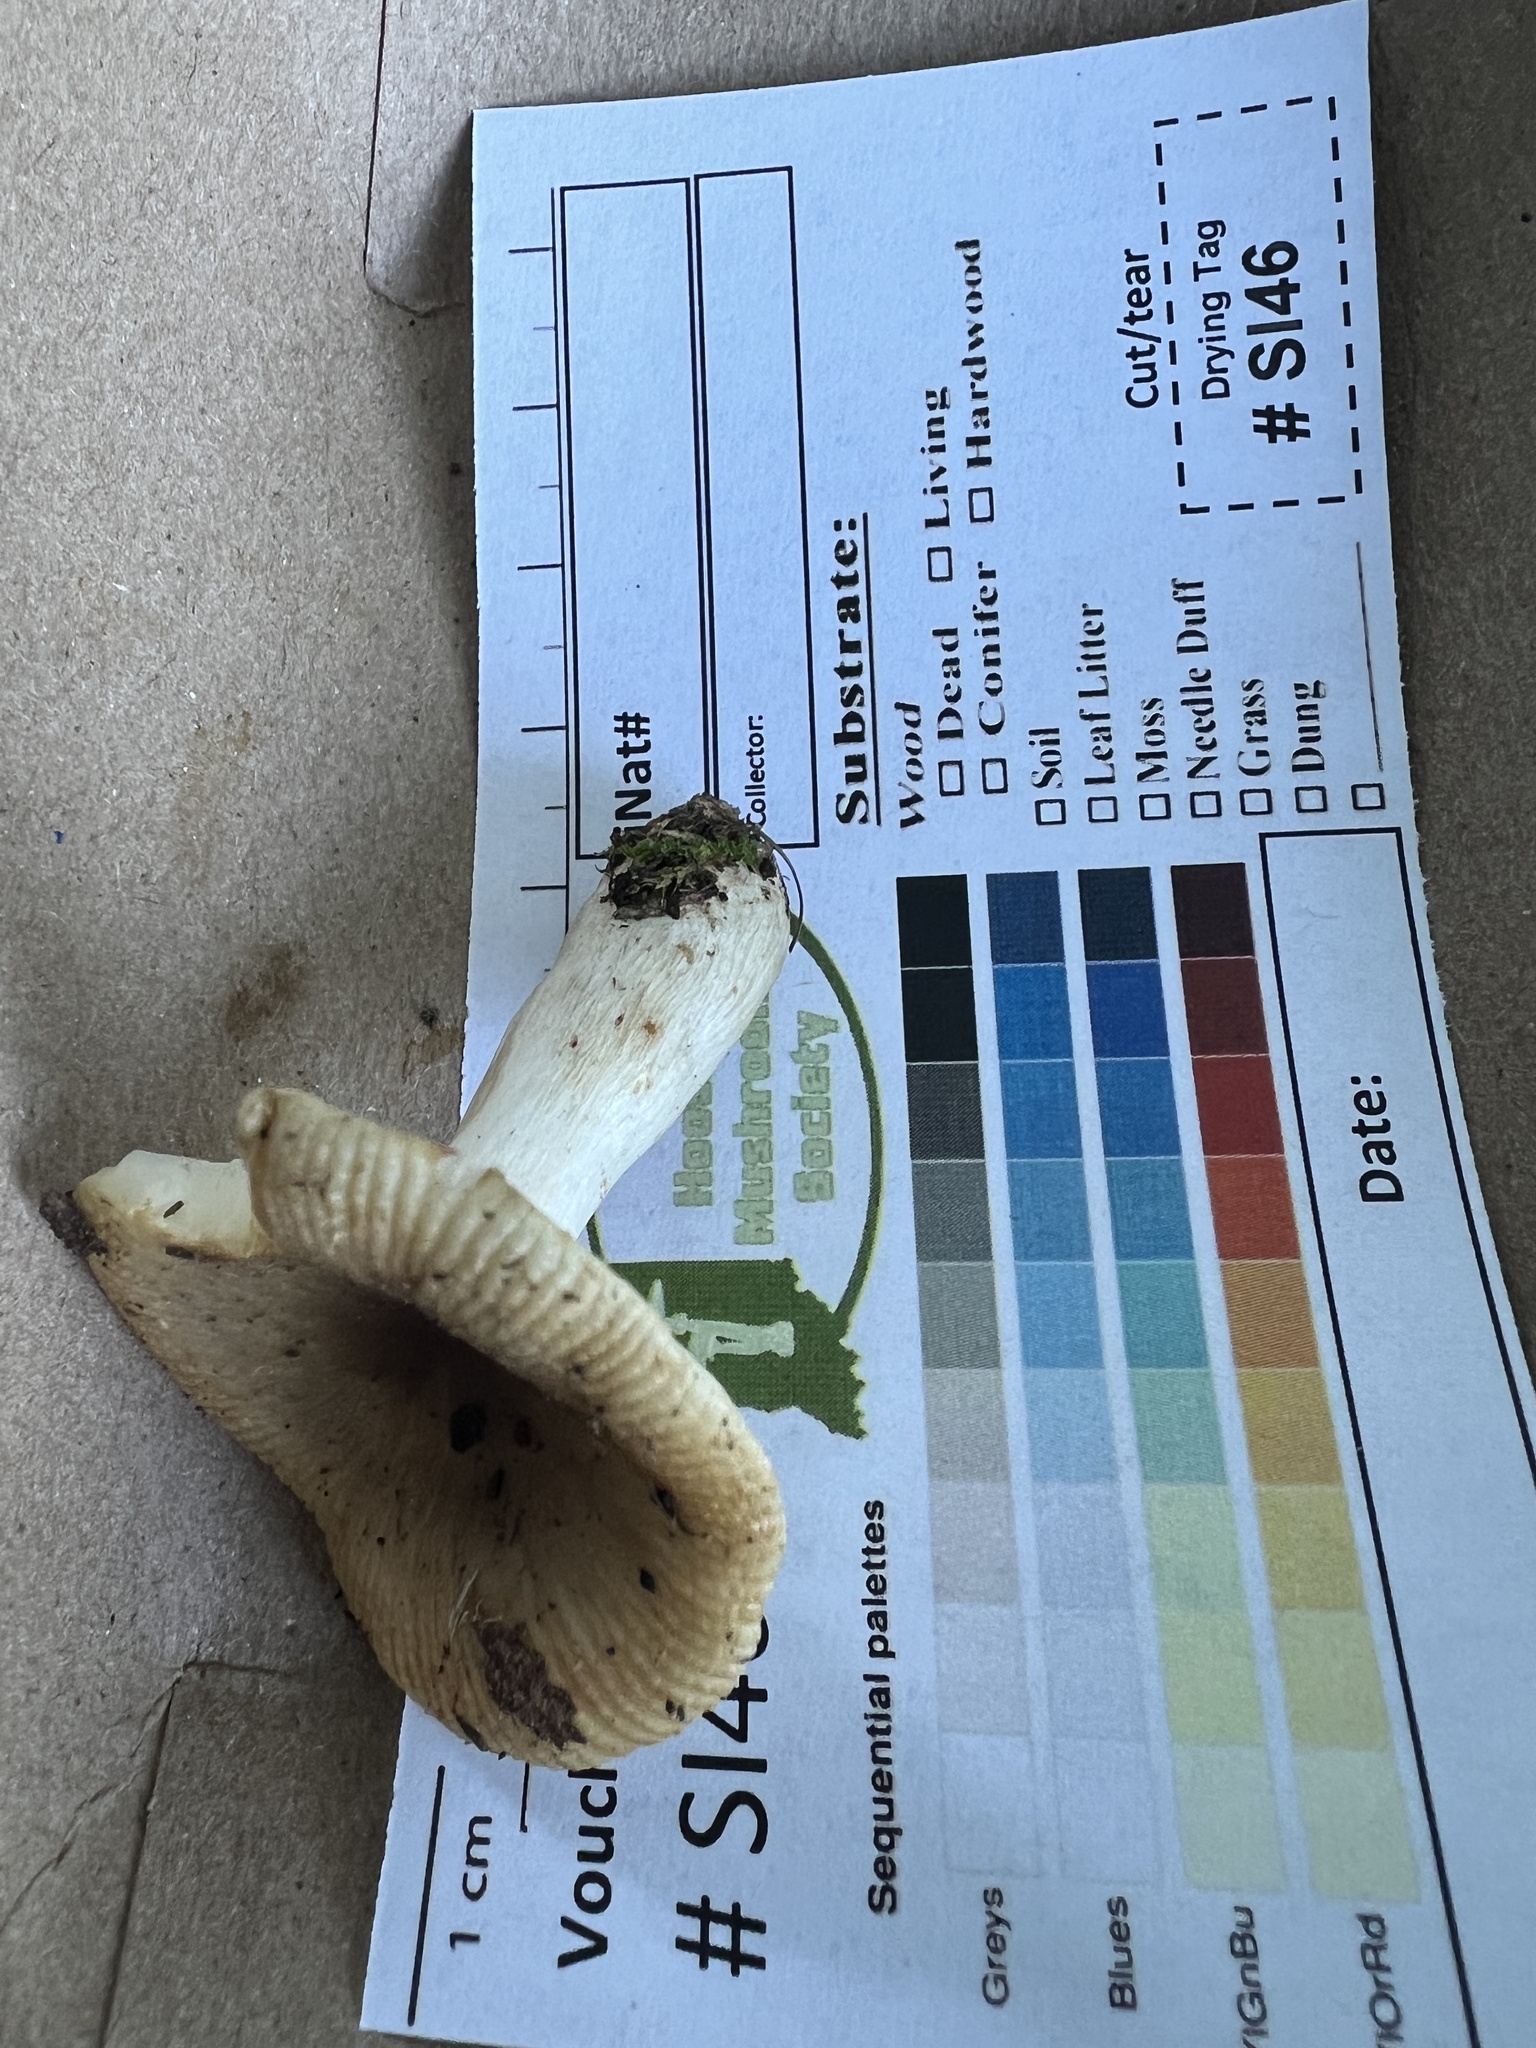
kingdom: Fungi
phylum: Basidiomycota
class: Agaricomycetes
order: Russulales
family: Russulaceae
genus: Russula
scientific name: Russula amerorecondita
